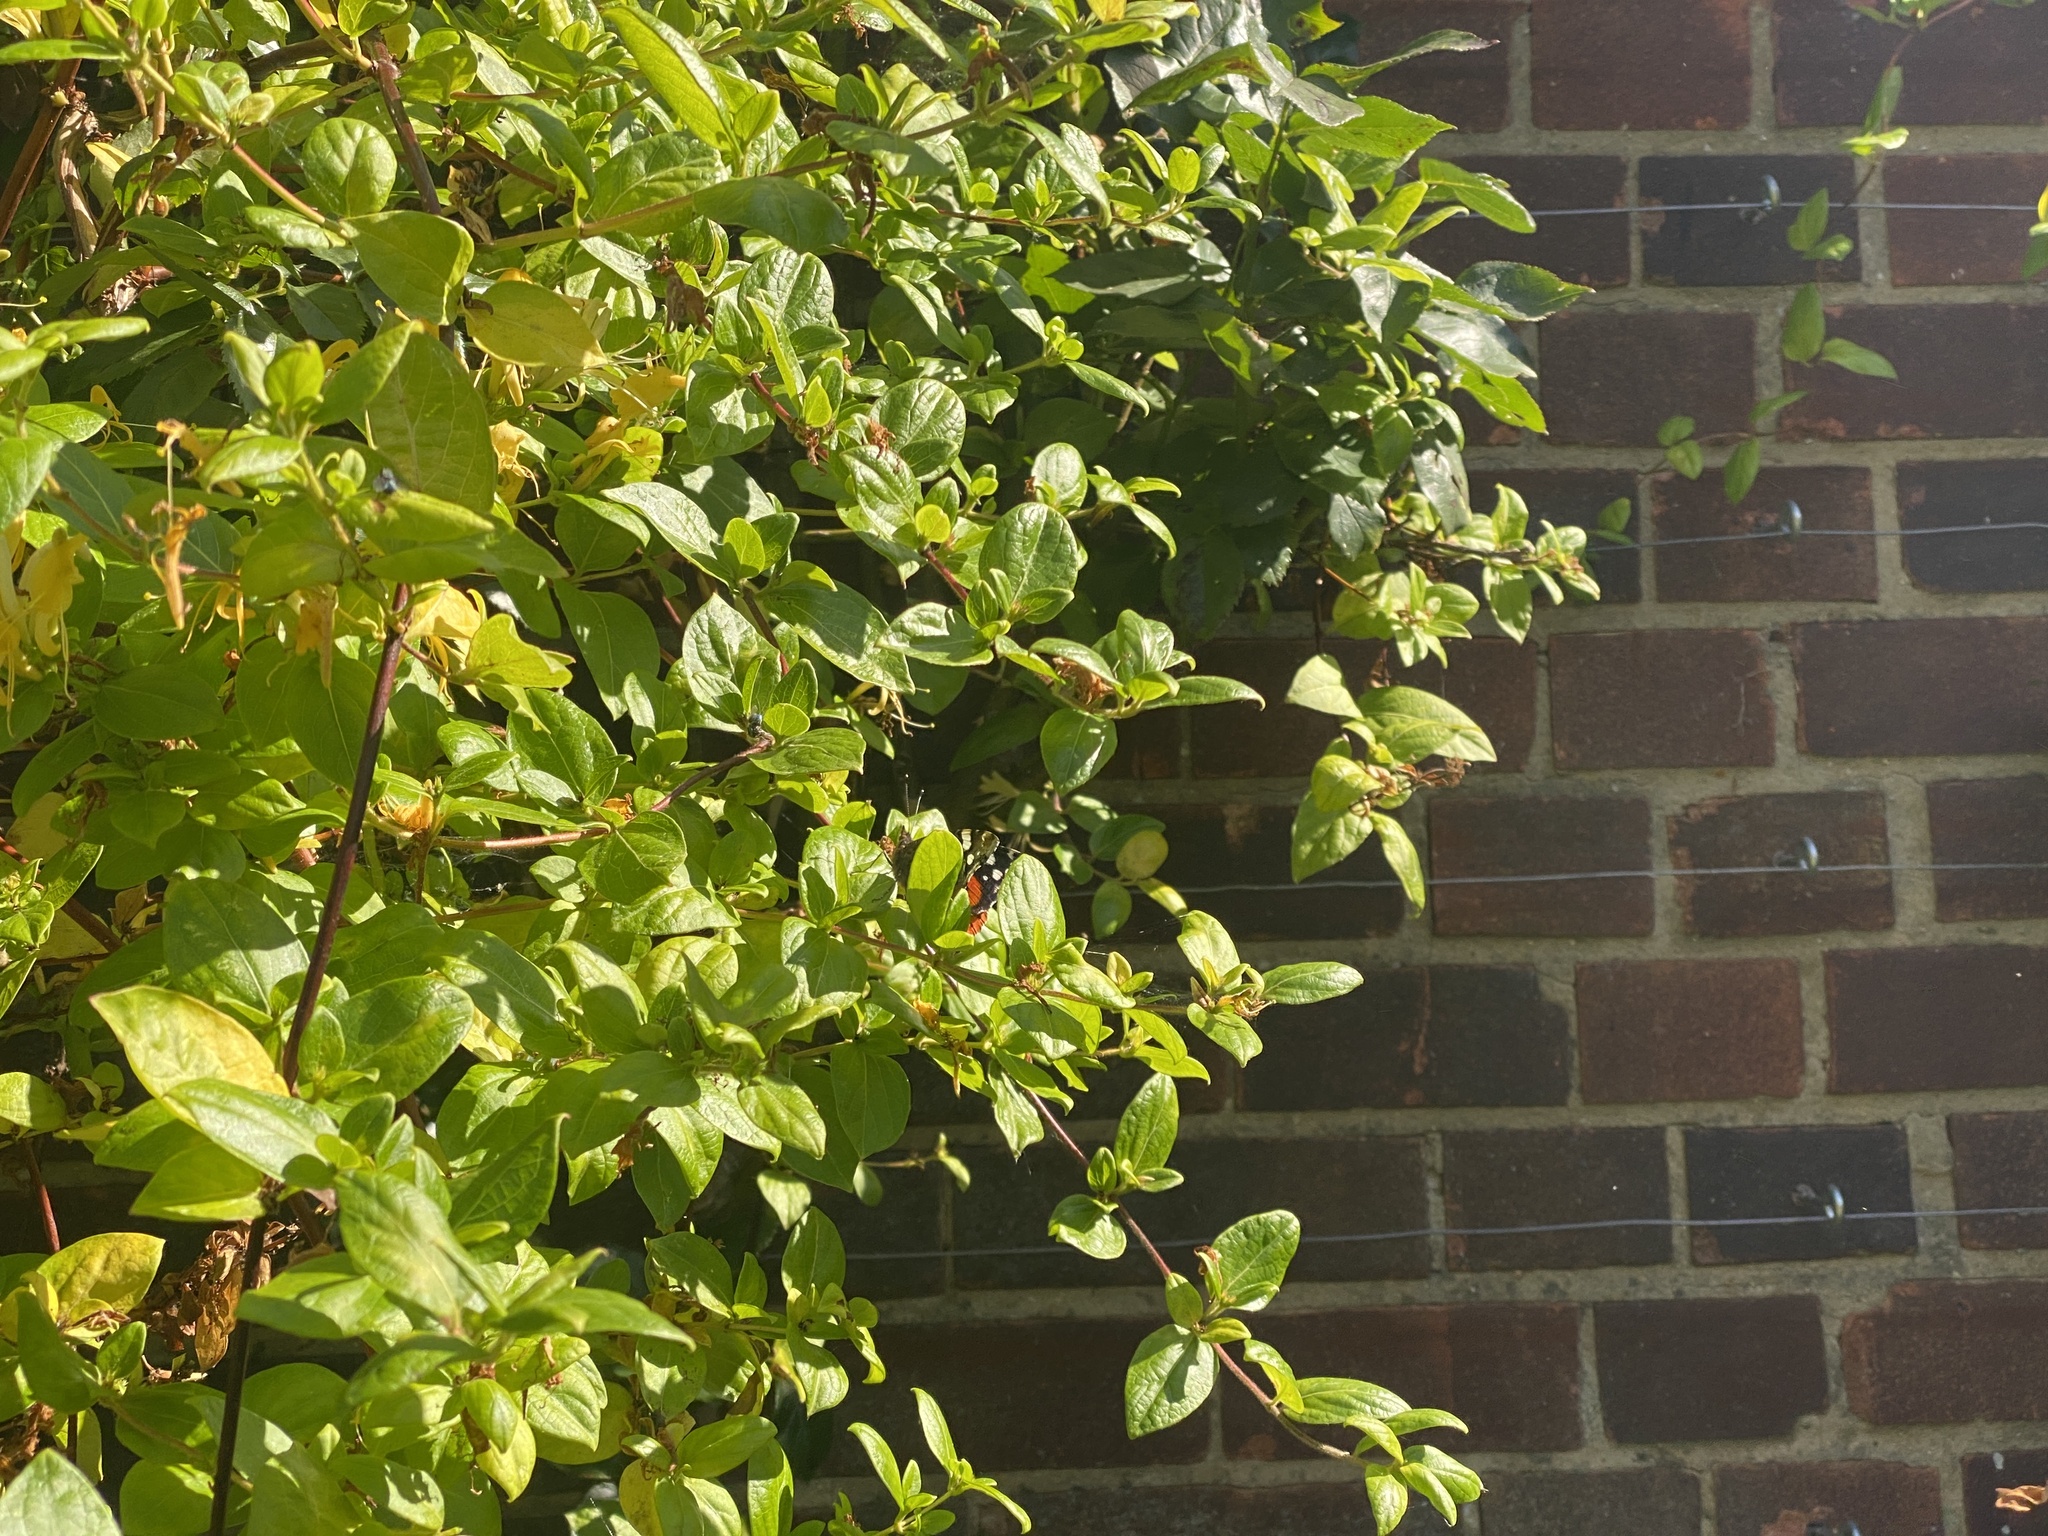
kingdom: Animalia
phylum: Arthropoda
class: Insecta
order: Lepidoptera
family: Nymphalidae
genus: Vanessa
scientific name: Vanessa atalanta
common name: Red admiral
